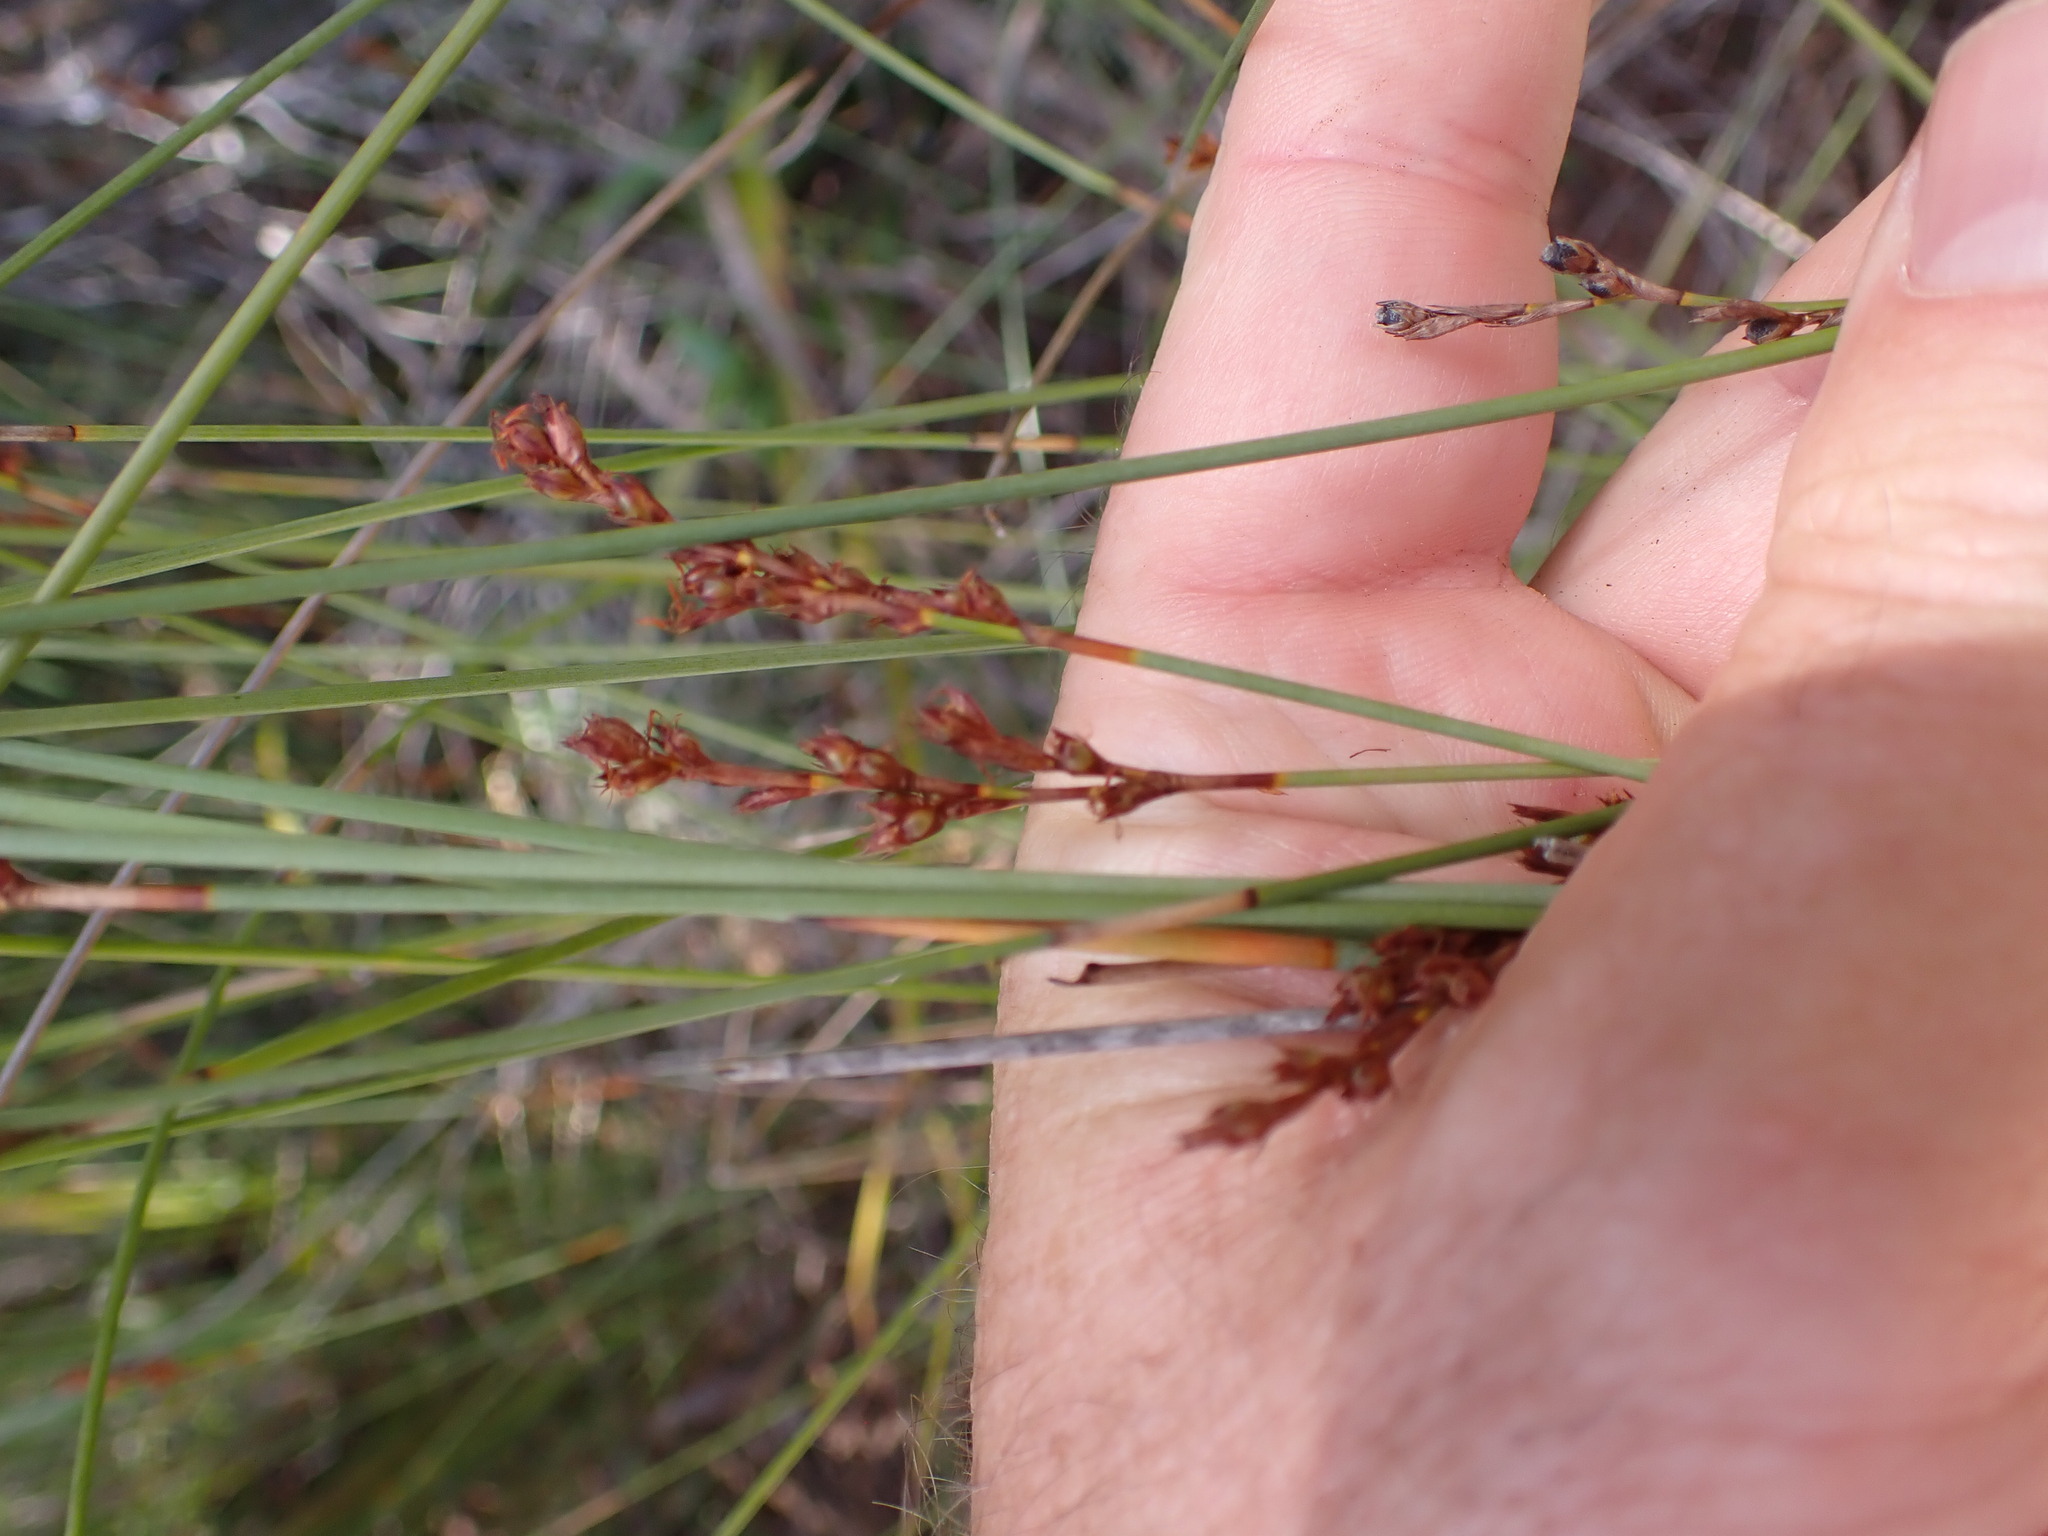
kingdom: Plantae
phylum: Tracheophyta
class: Liliopsida
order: Poales
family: Cyperaceae
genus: Machaerina
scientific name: Machaerina juncea
